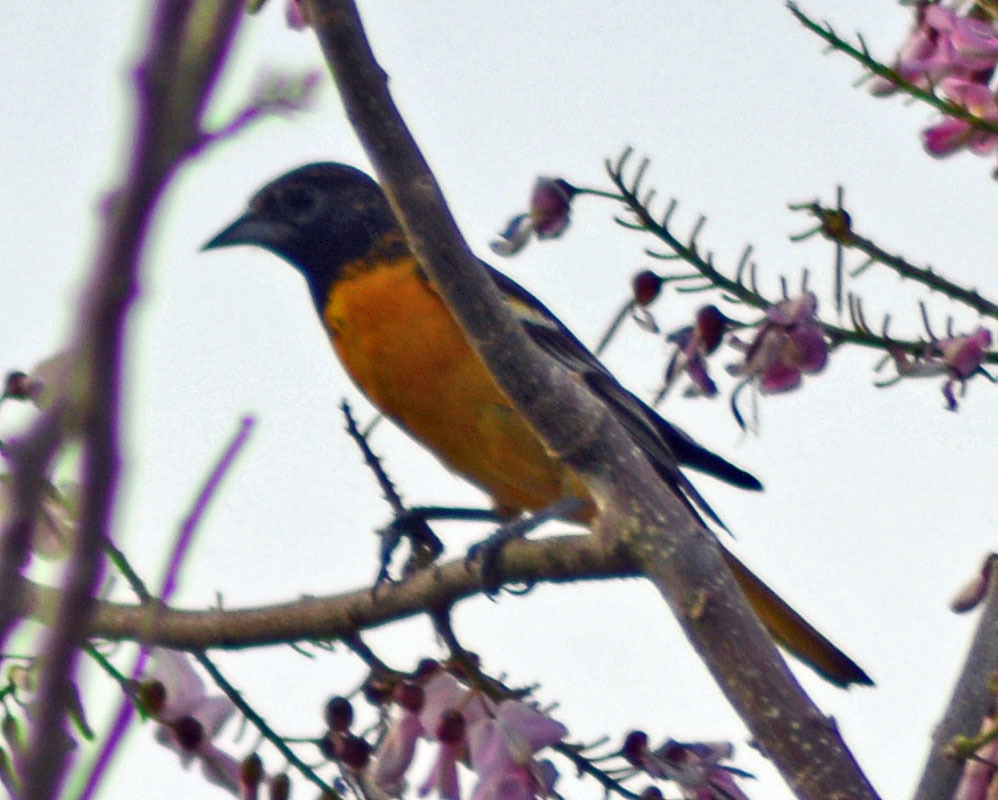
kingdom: Animalia
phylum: Chordata
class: Aves
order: Passeriformes
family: Icteridae
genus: Icterus
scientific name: Icterus galbula
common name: Baltimore oriole
